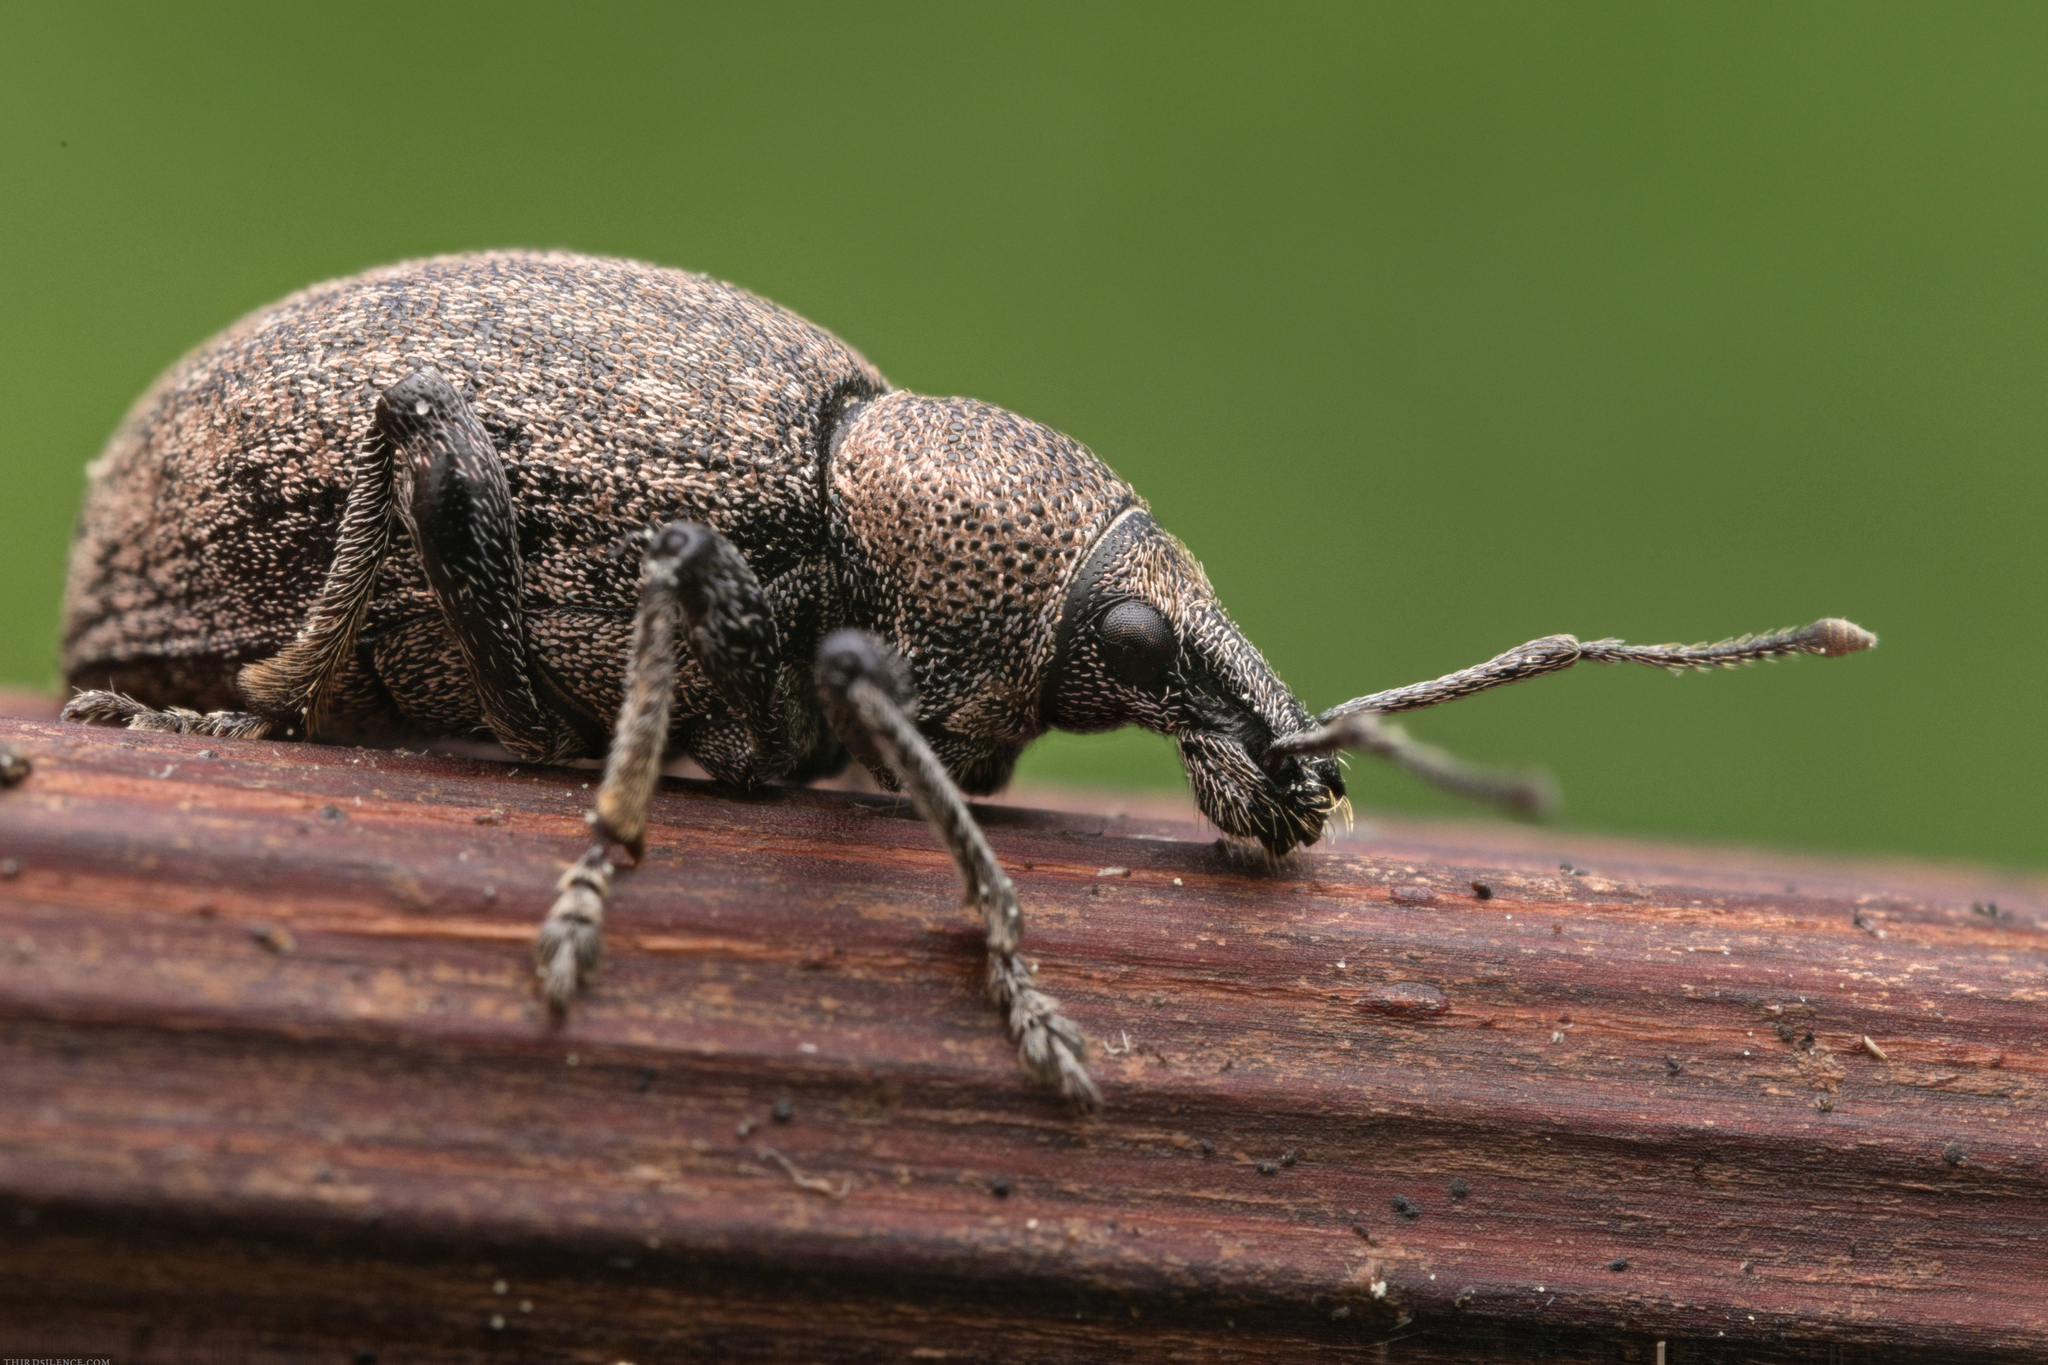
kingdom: Animalia
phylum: Arthropoda
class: Insecta
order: Coleoptera
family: Curculionidae
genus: Otiorhynchus
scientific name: Otiorhynchus ligustici
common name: Weevil
